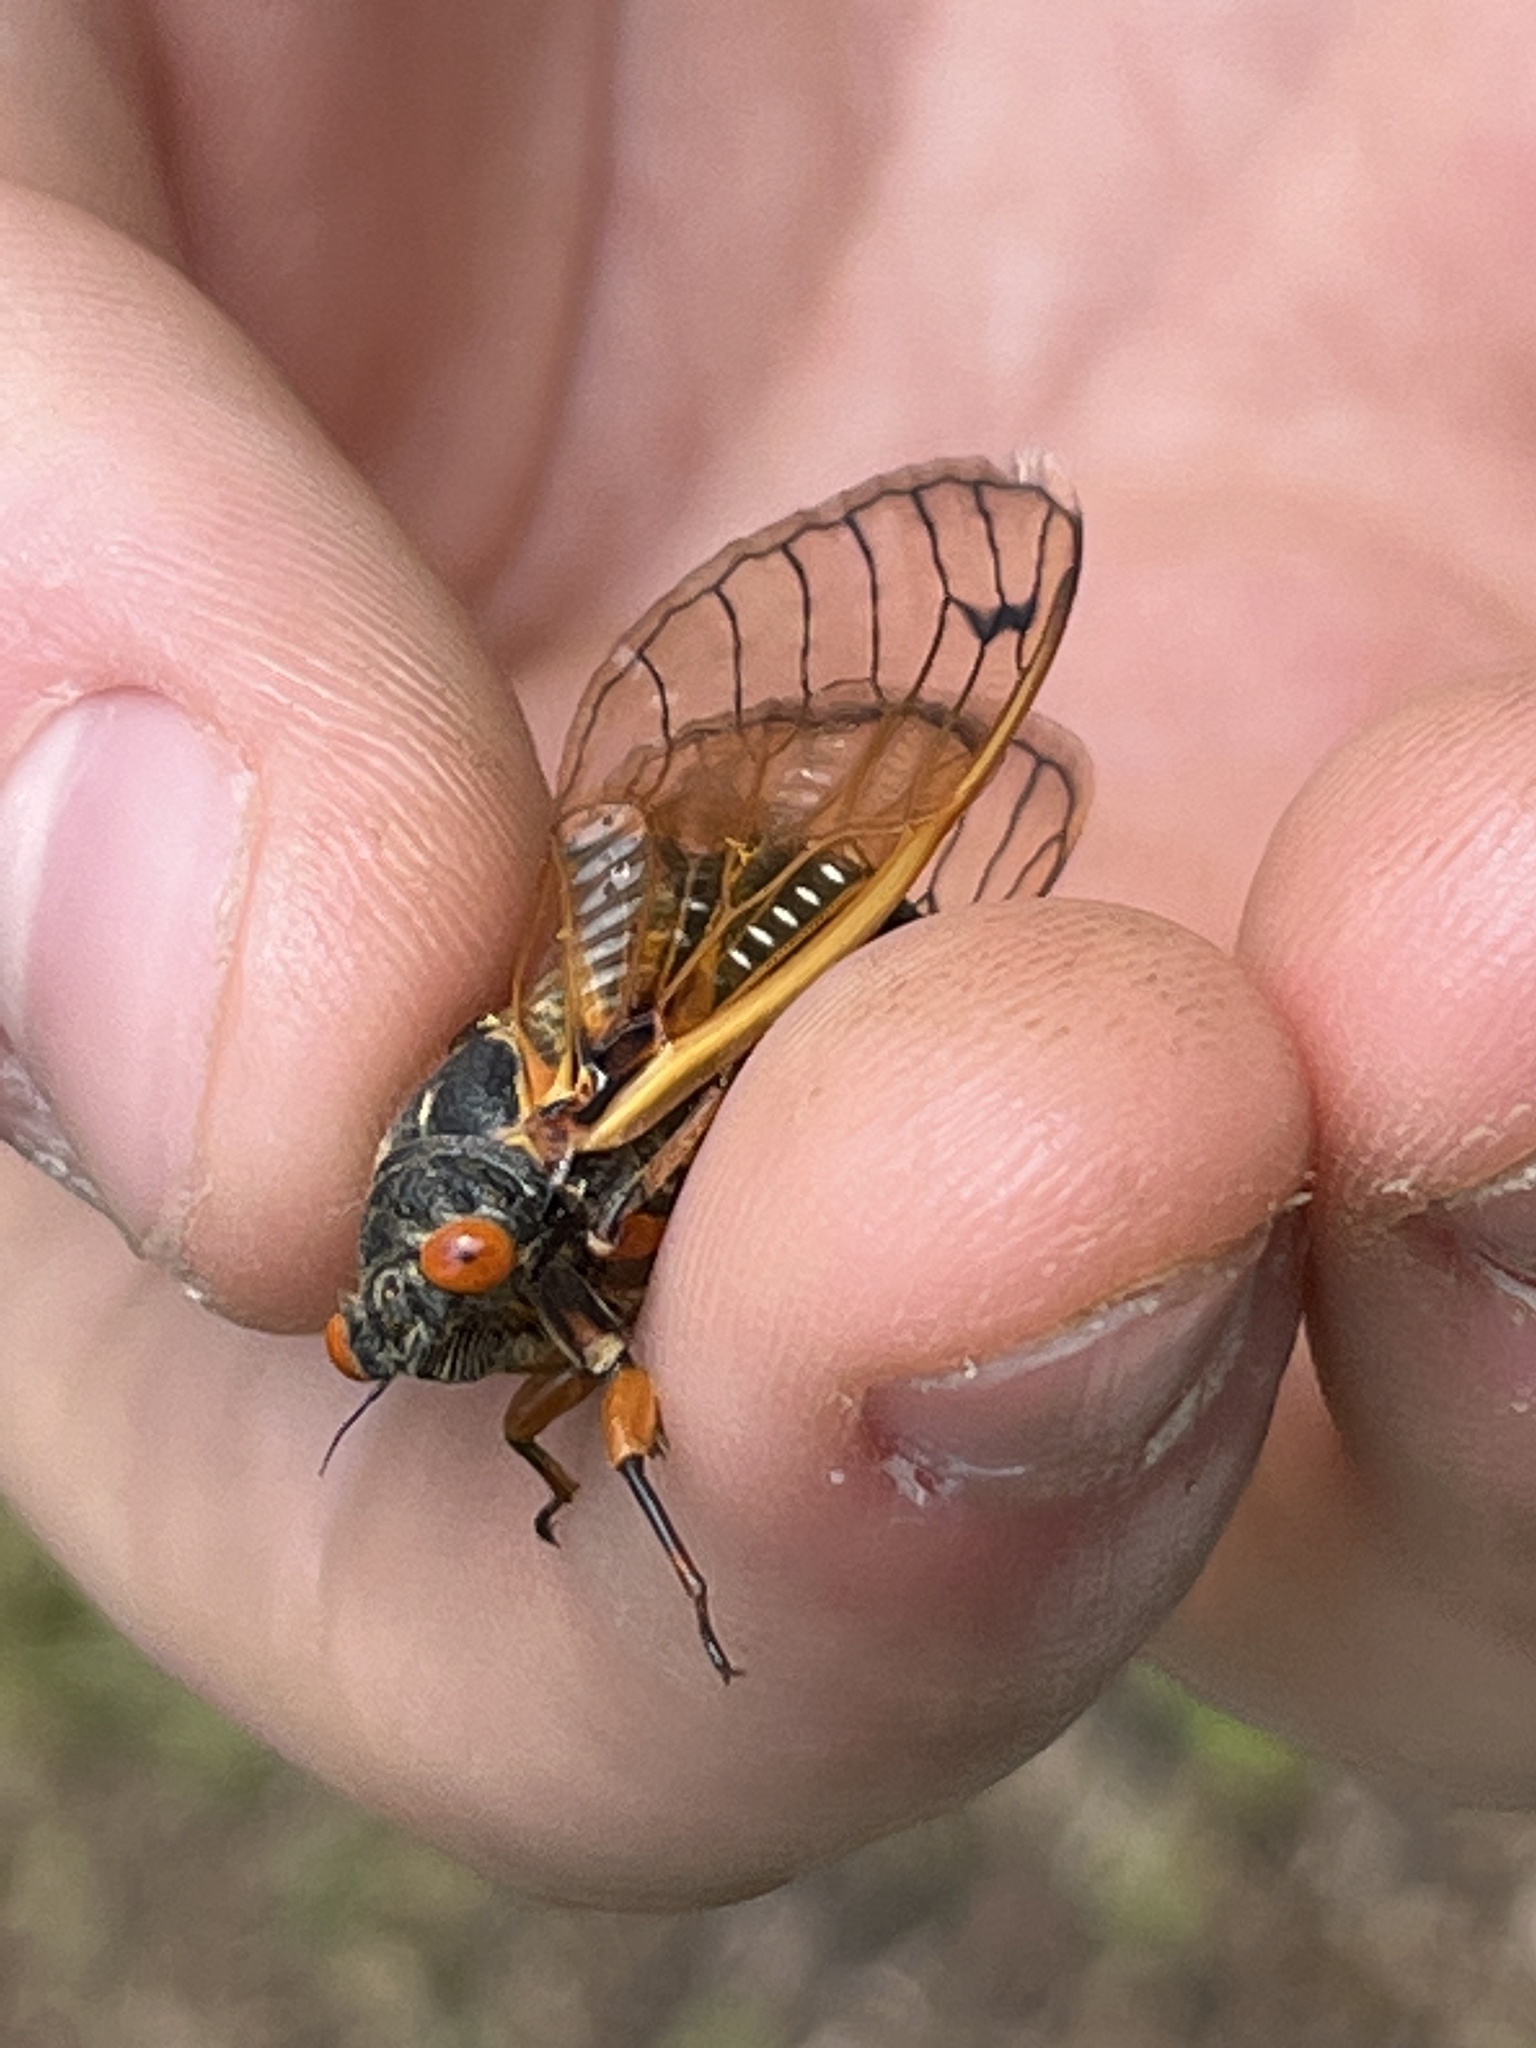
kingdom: Animalia
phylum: Arthropoda
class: Insecta
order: Hemiptera
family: Cicadidae
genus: Magicicada
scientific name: Magicicada
